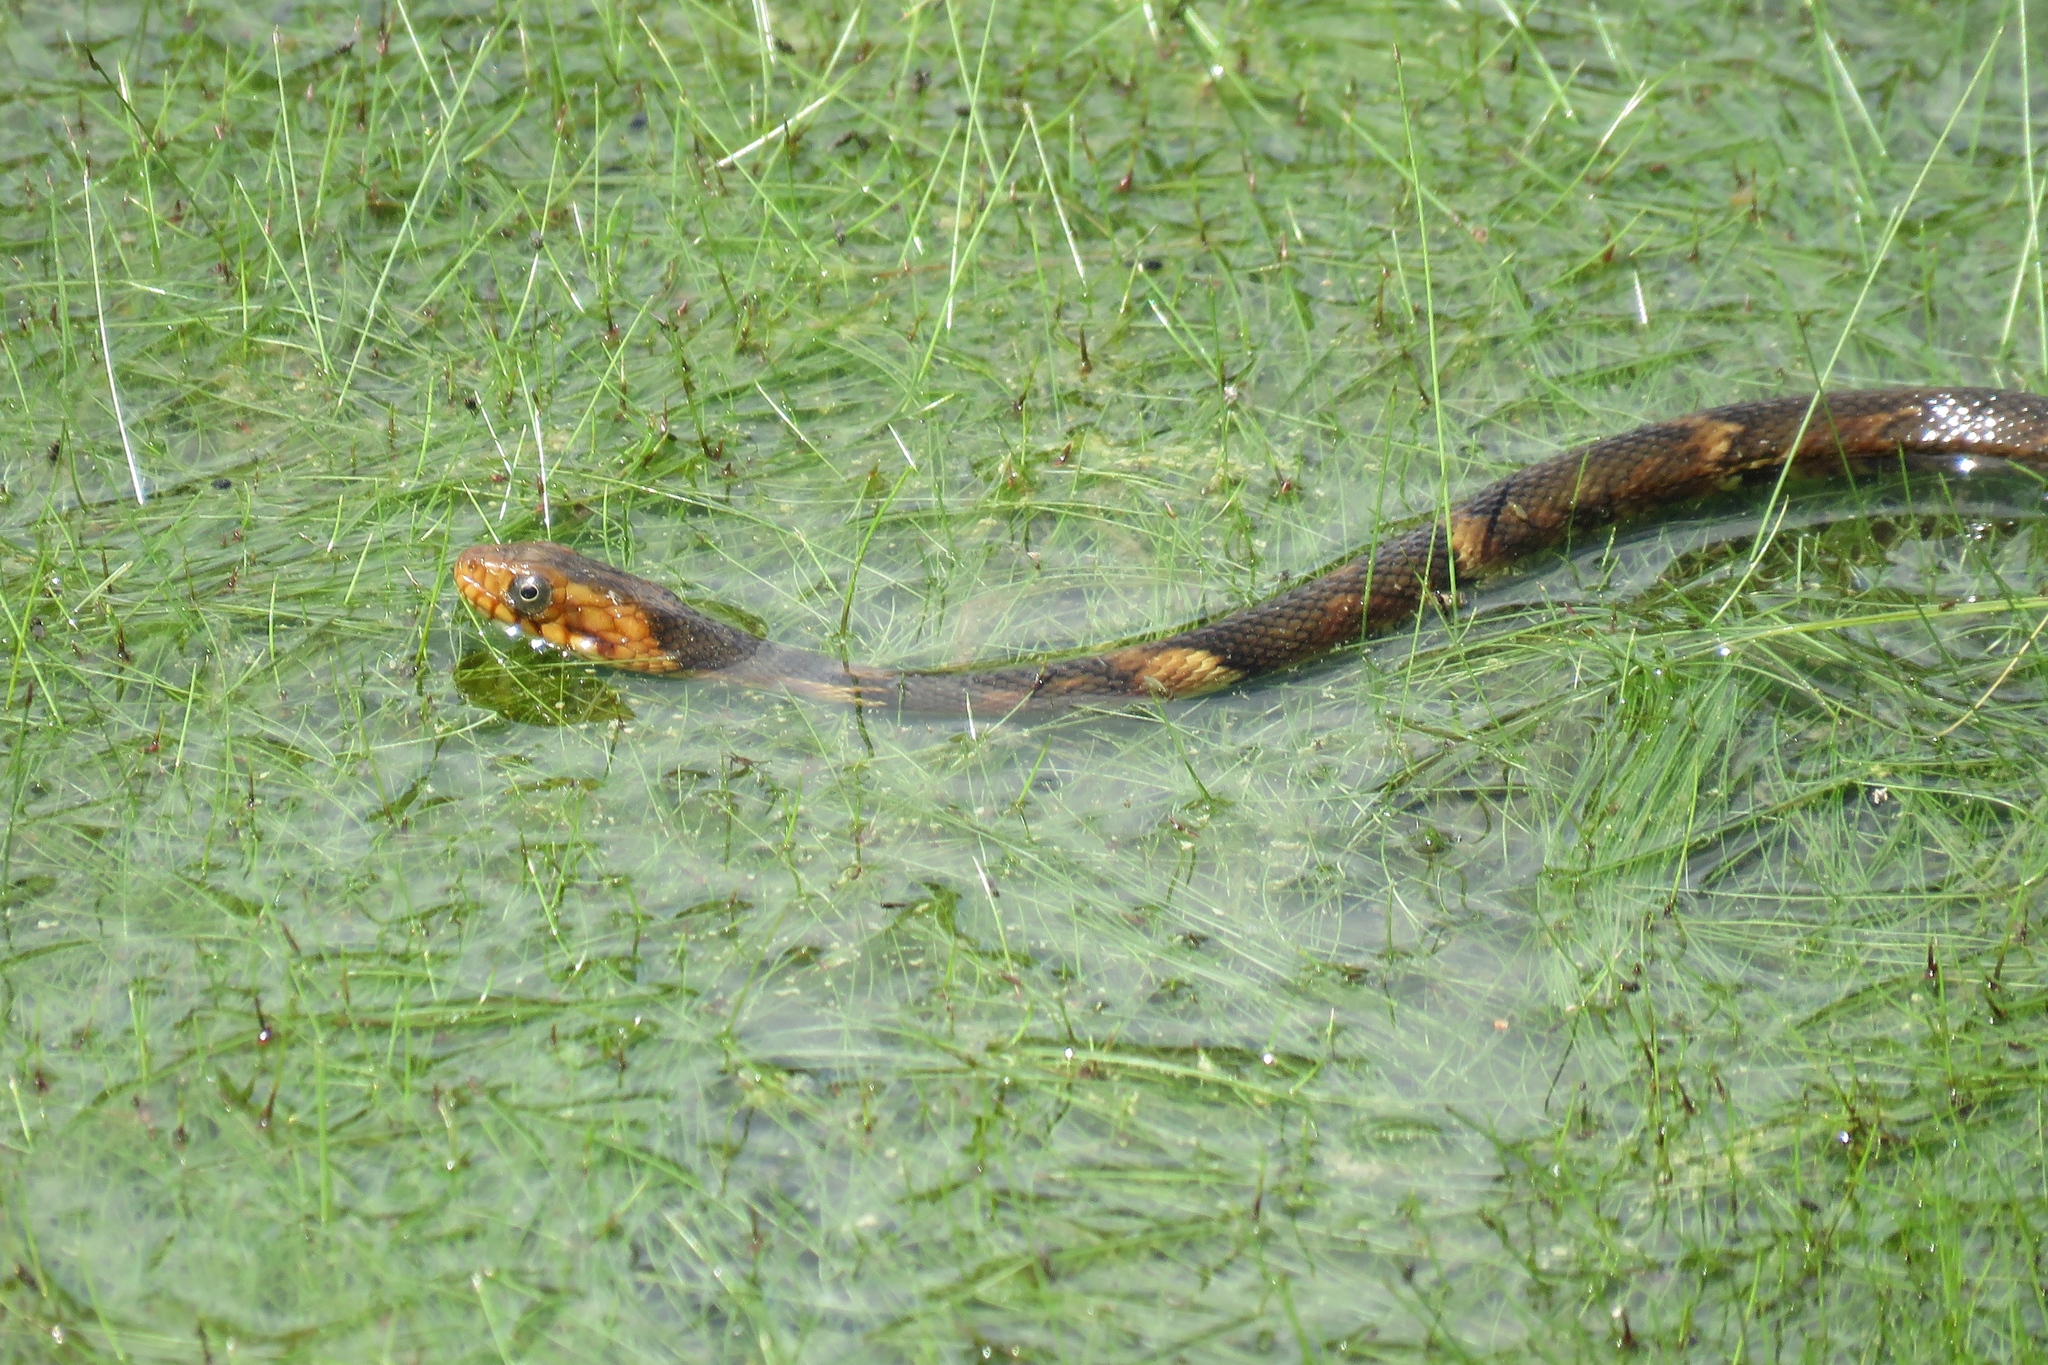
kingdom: Animalia
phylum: Chordata
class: Squamata
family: Colubridae
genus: Nerodia
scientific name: Nerodia fasciata
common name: Southern water snake
